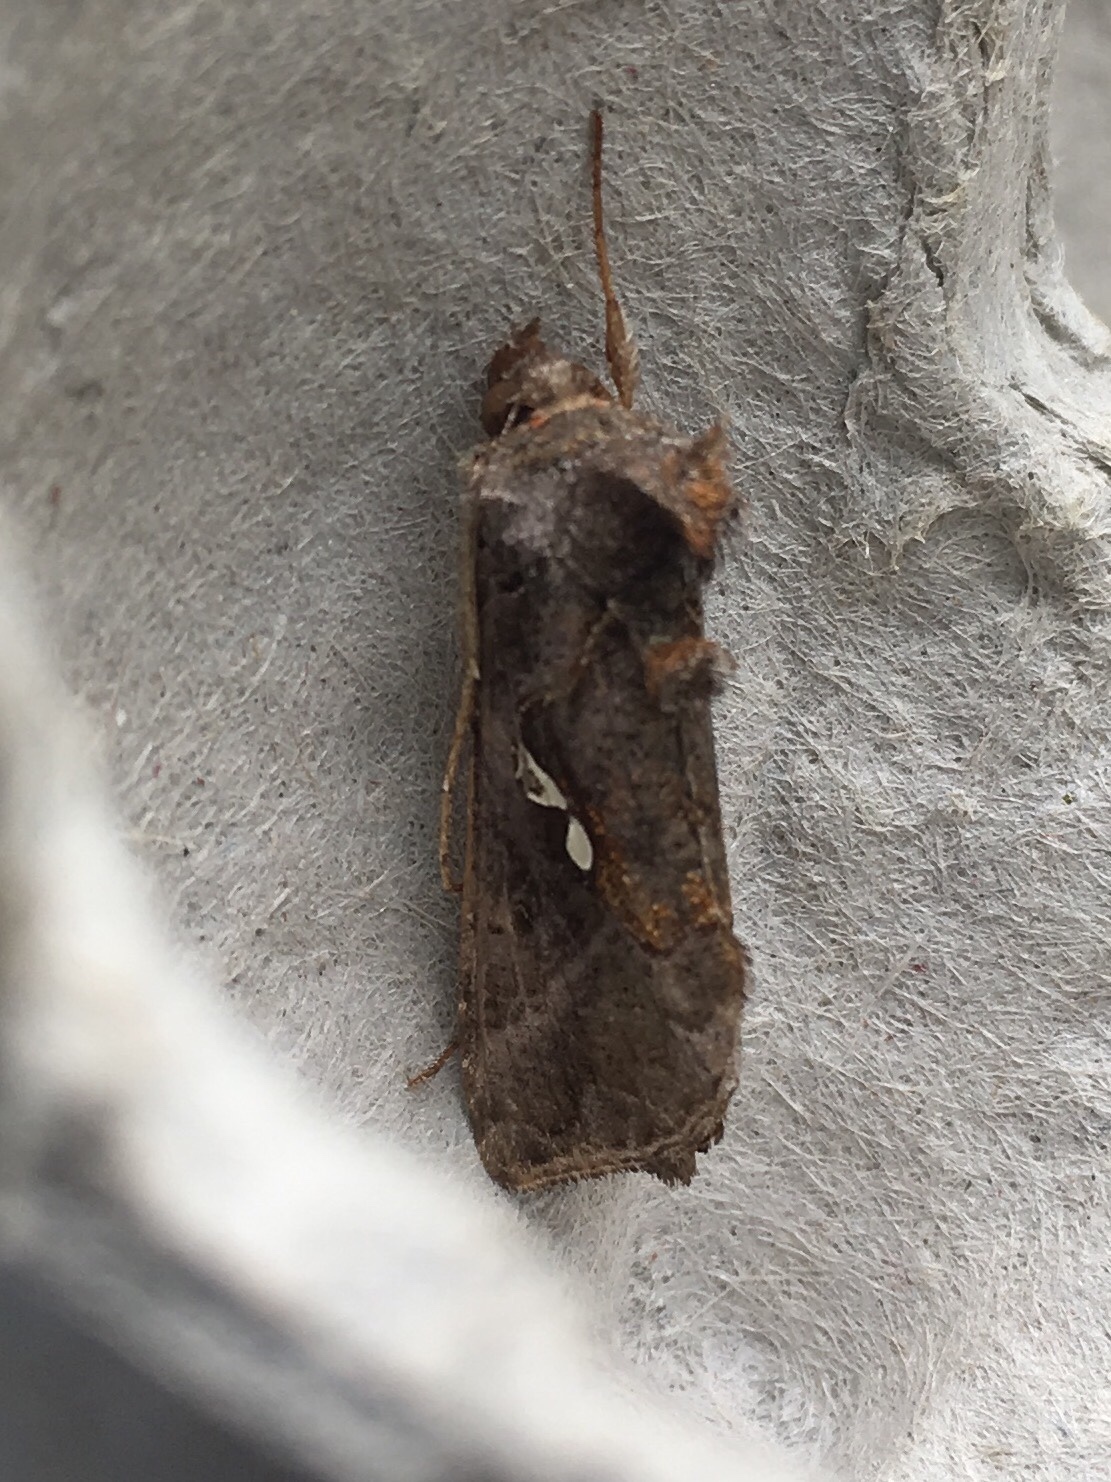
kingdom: Animalia
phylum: Arthropoda
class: Insecta
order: Lepidoptera
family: Noctuidae
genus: Autographa
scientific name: Autographa precationis
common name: Common looper moth
